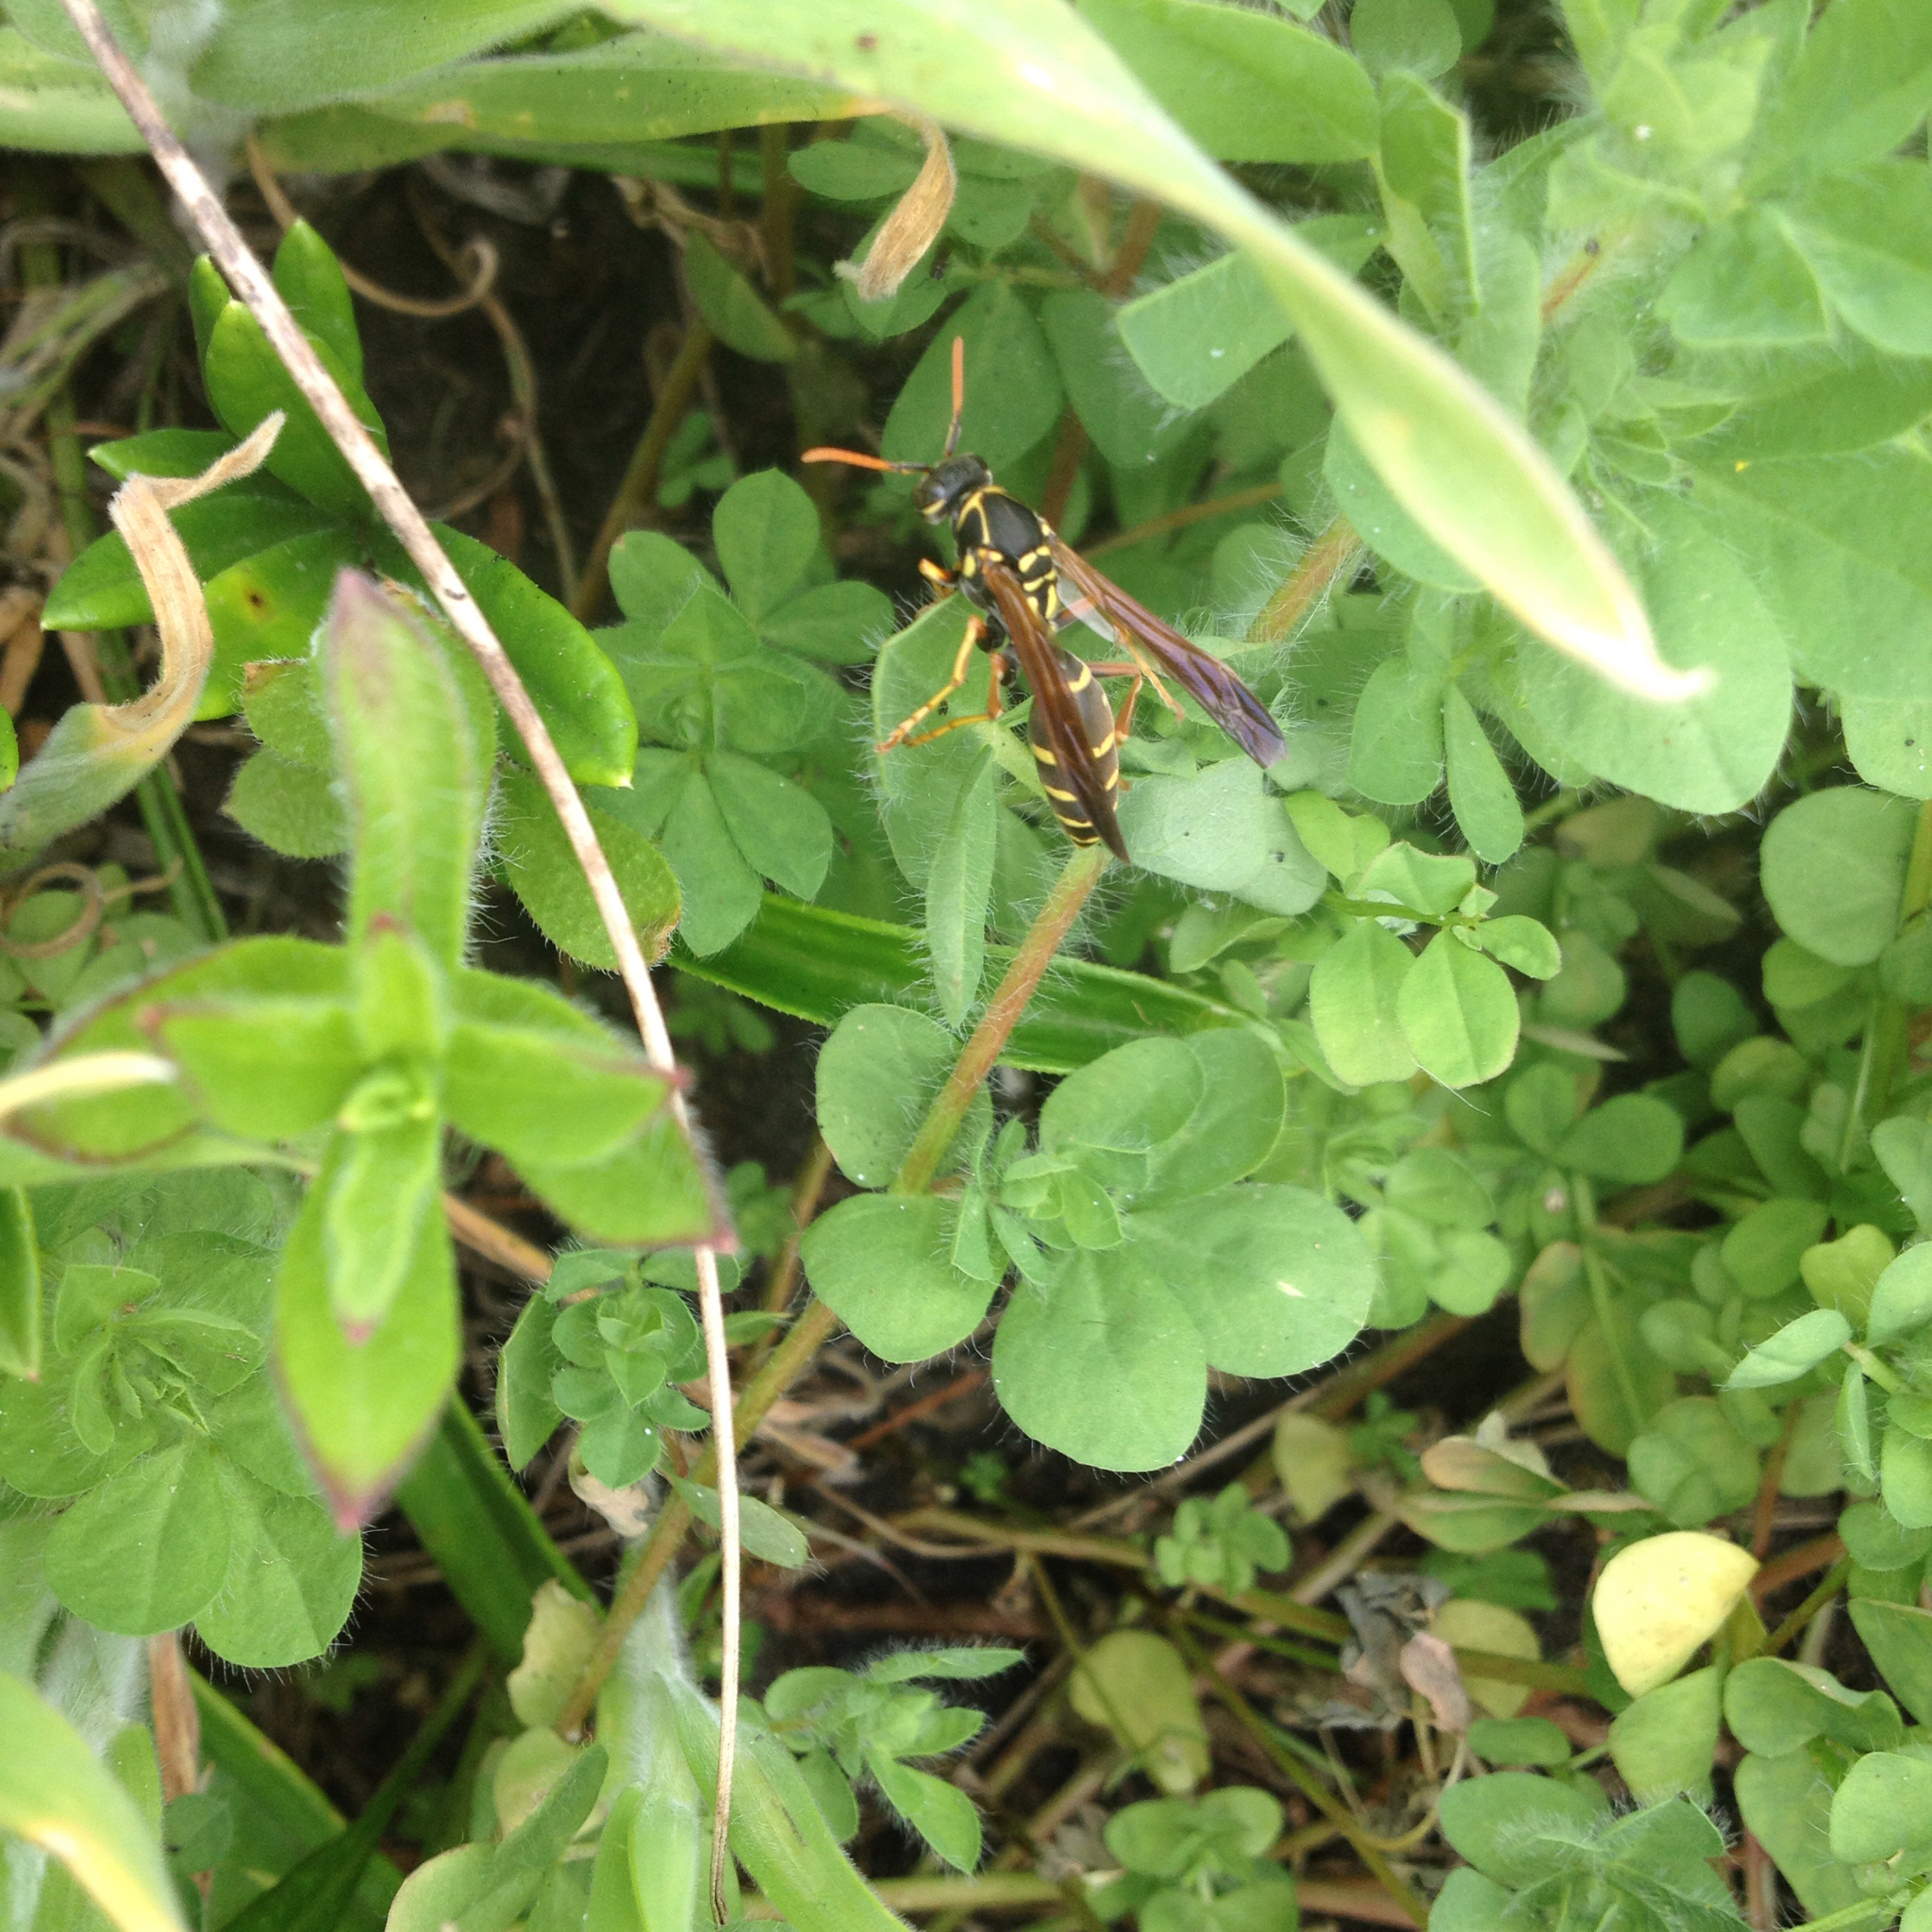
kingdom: Animalia
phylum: Arthropoda
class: Insecta
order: Hymenoptera
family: Eumenidae
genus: Polistes
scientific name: Polistes chinensis
